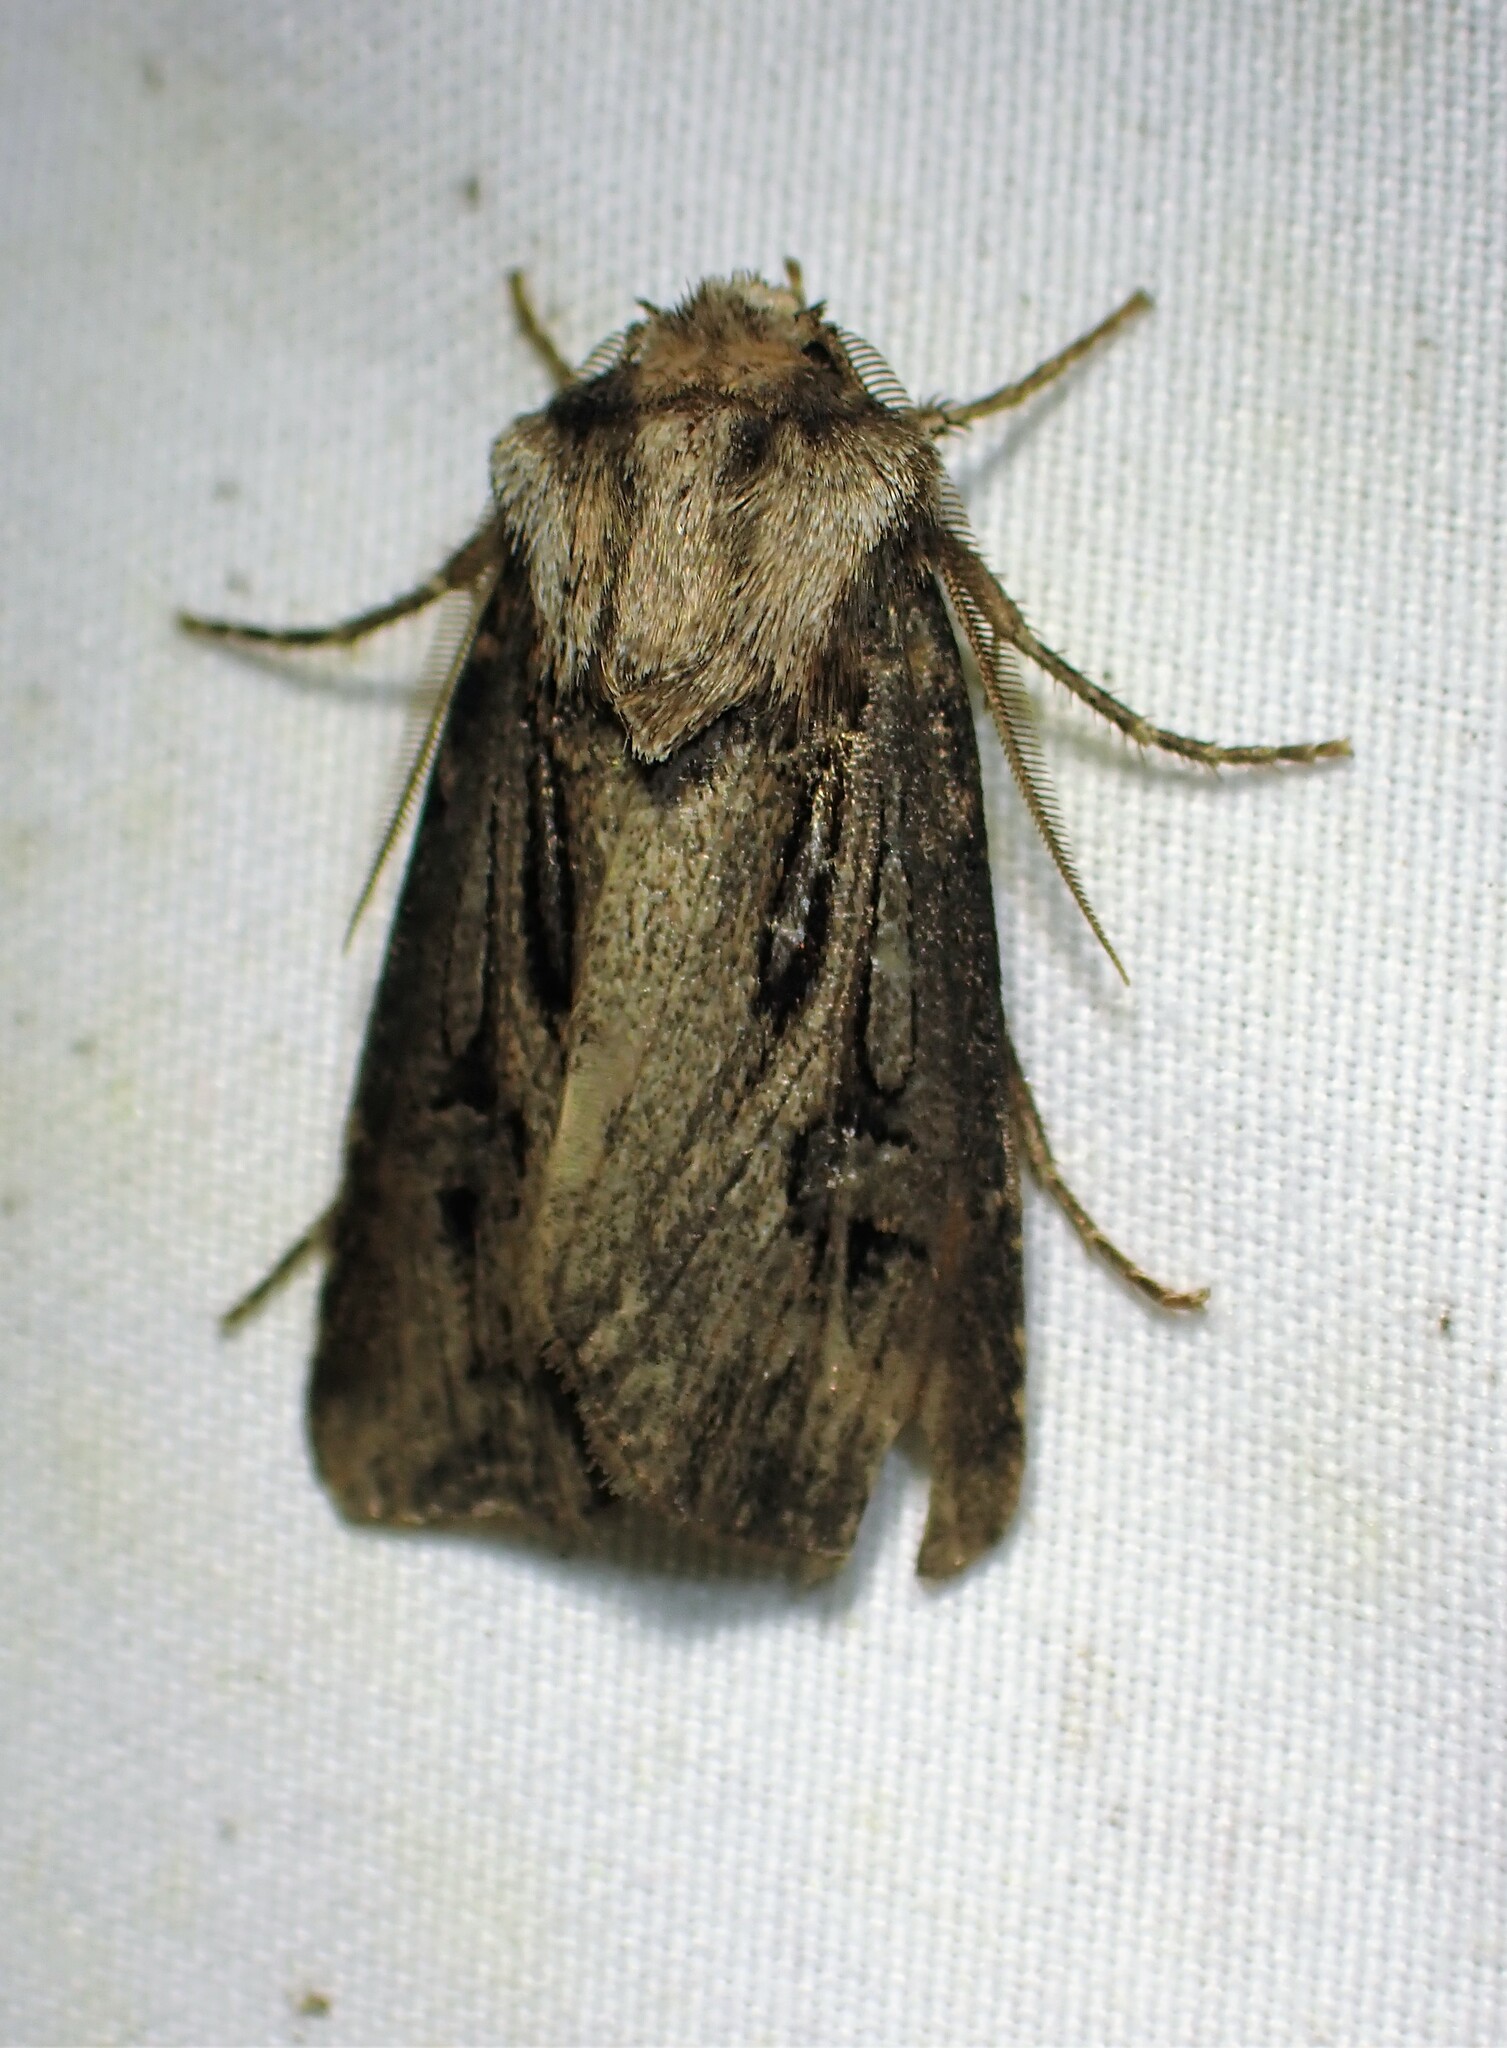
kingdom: Animalia
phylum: Arthropoda
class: Insecta
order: Lepidoptera
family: Noctuidae
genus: Agrotis
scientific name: Agrotis venerabilis
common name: Venerable dart
